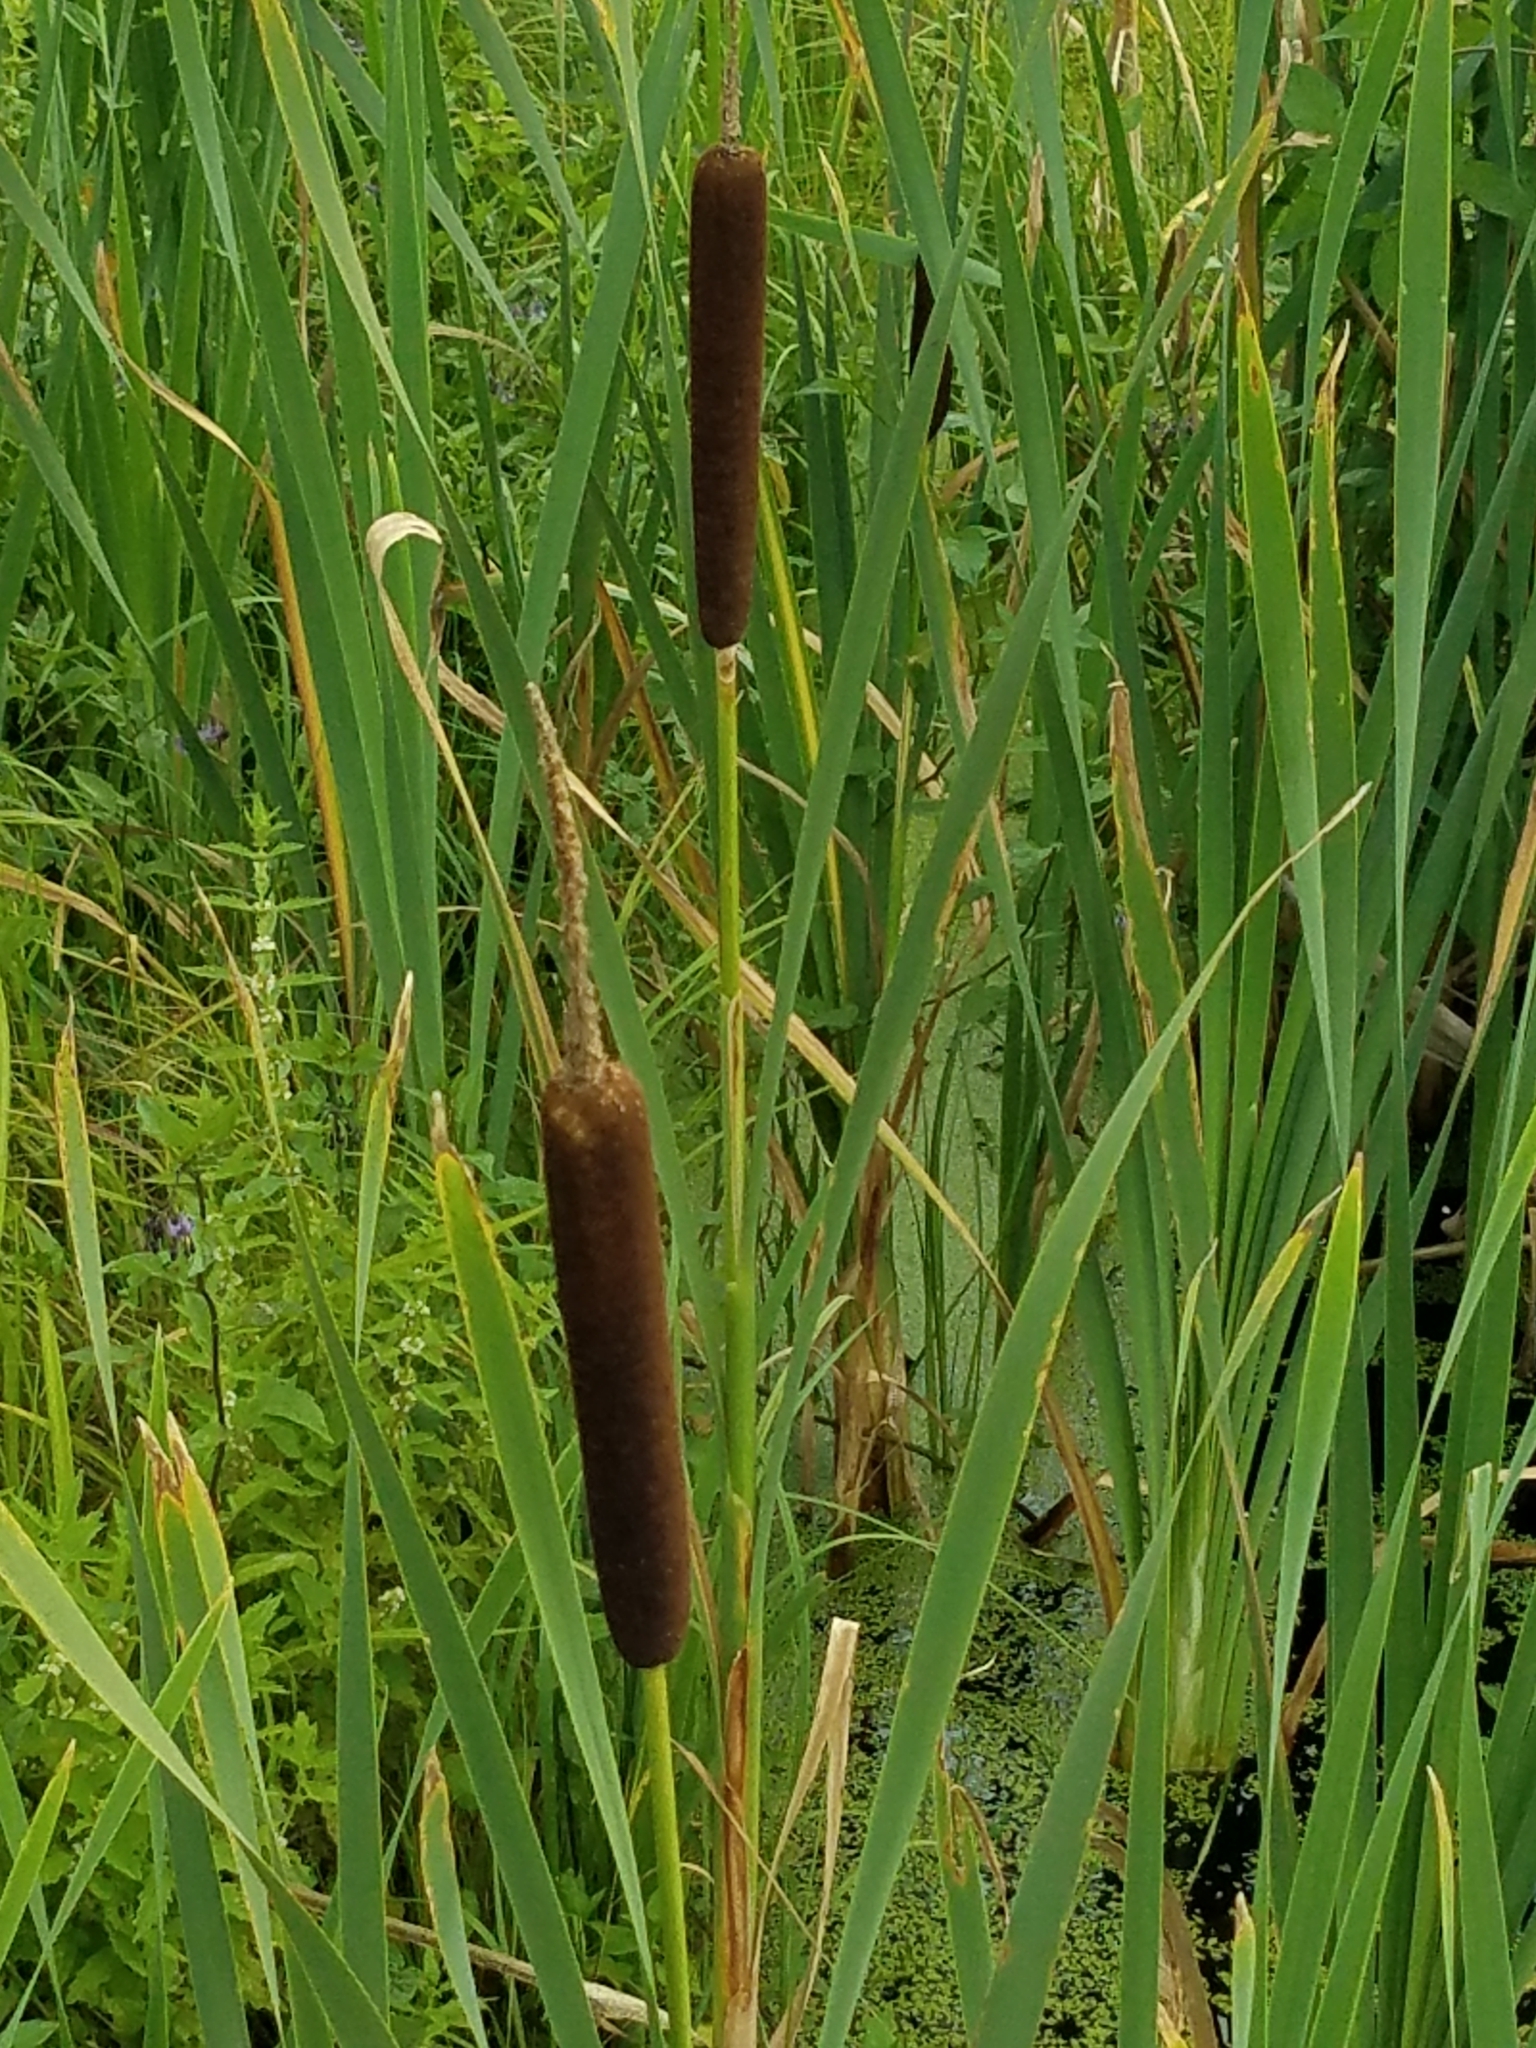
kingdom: Plantae
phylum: Tracheophyta
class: Liliopsida
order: Poales
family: Typhaceae
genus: Typha
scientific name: Typha latifolia
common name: Broadleaf cattail
